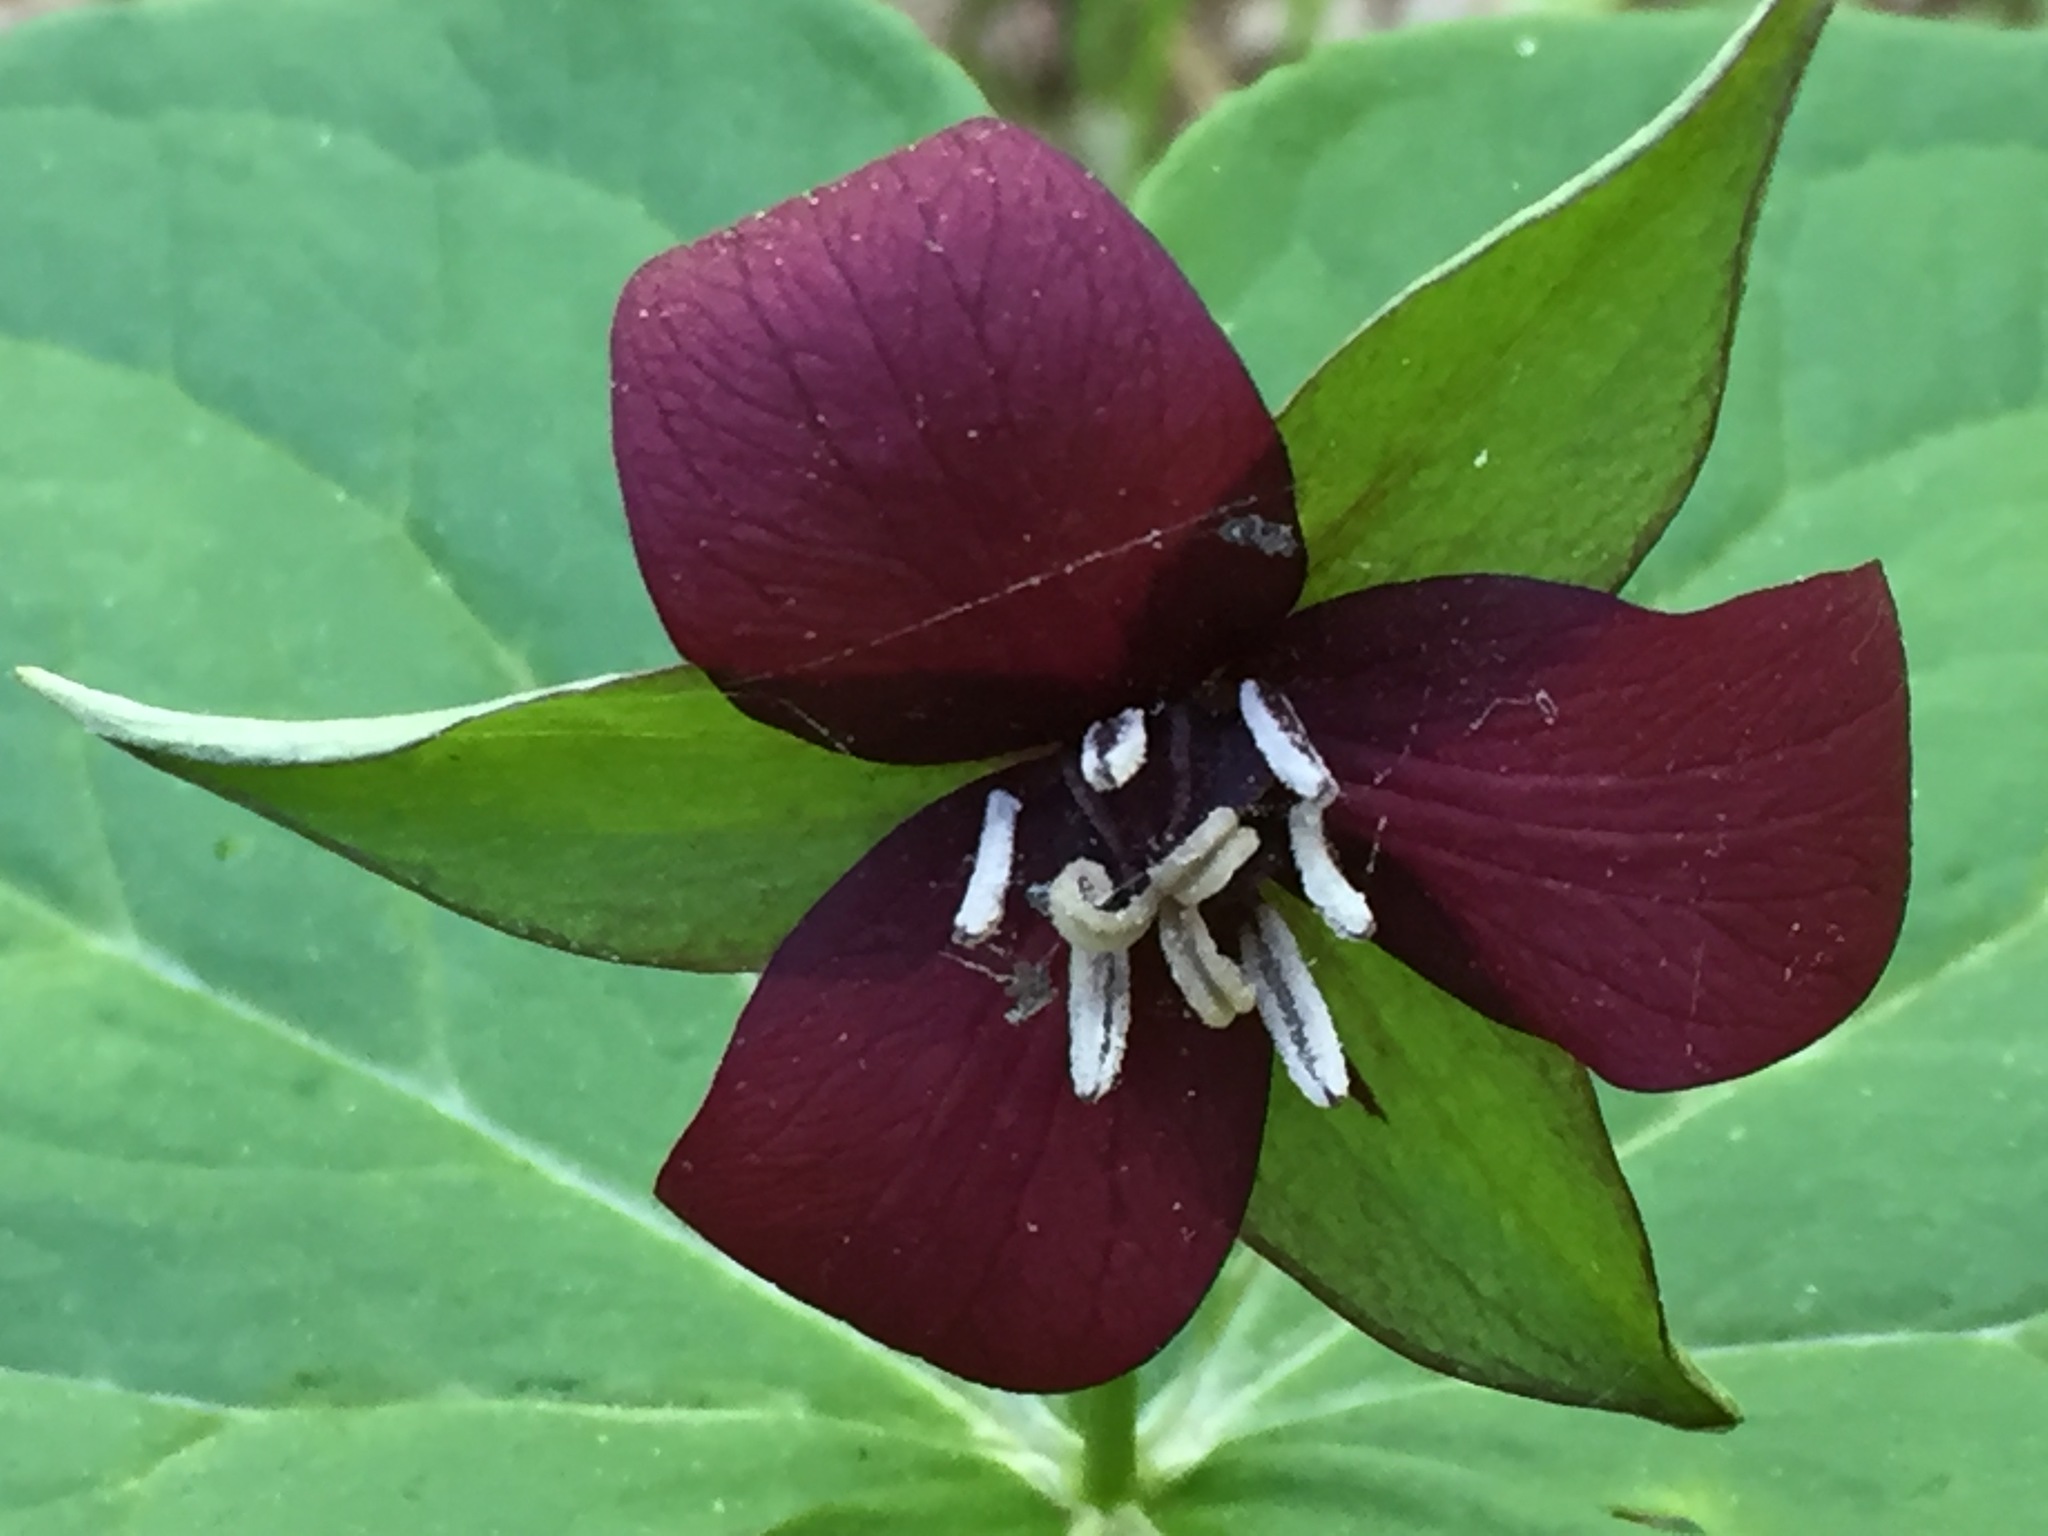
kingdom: Plantae
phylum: Tracheophyta
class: Liliopsida
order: Liliales
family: Melanthiaceae
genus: Trillium
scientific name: Trillium erectum
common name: Purple trillium
